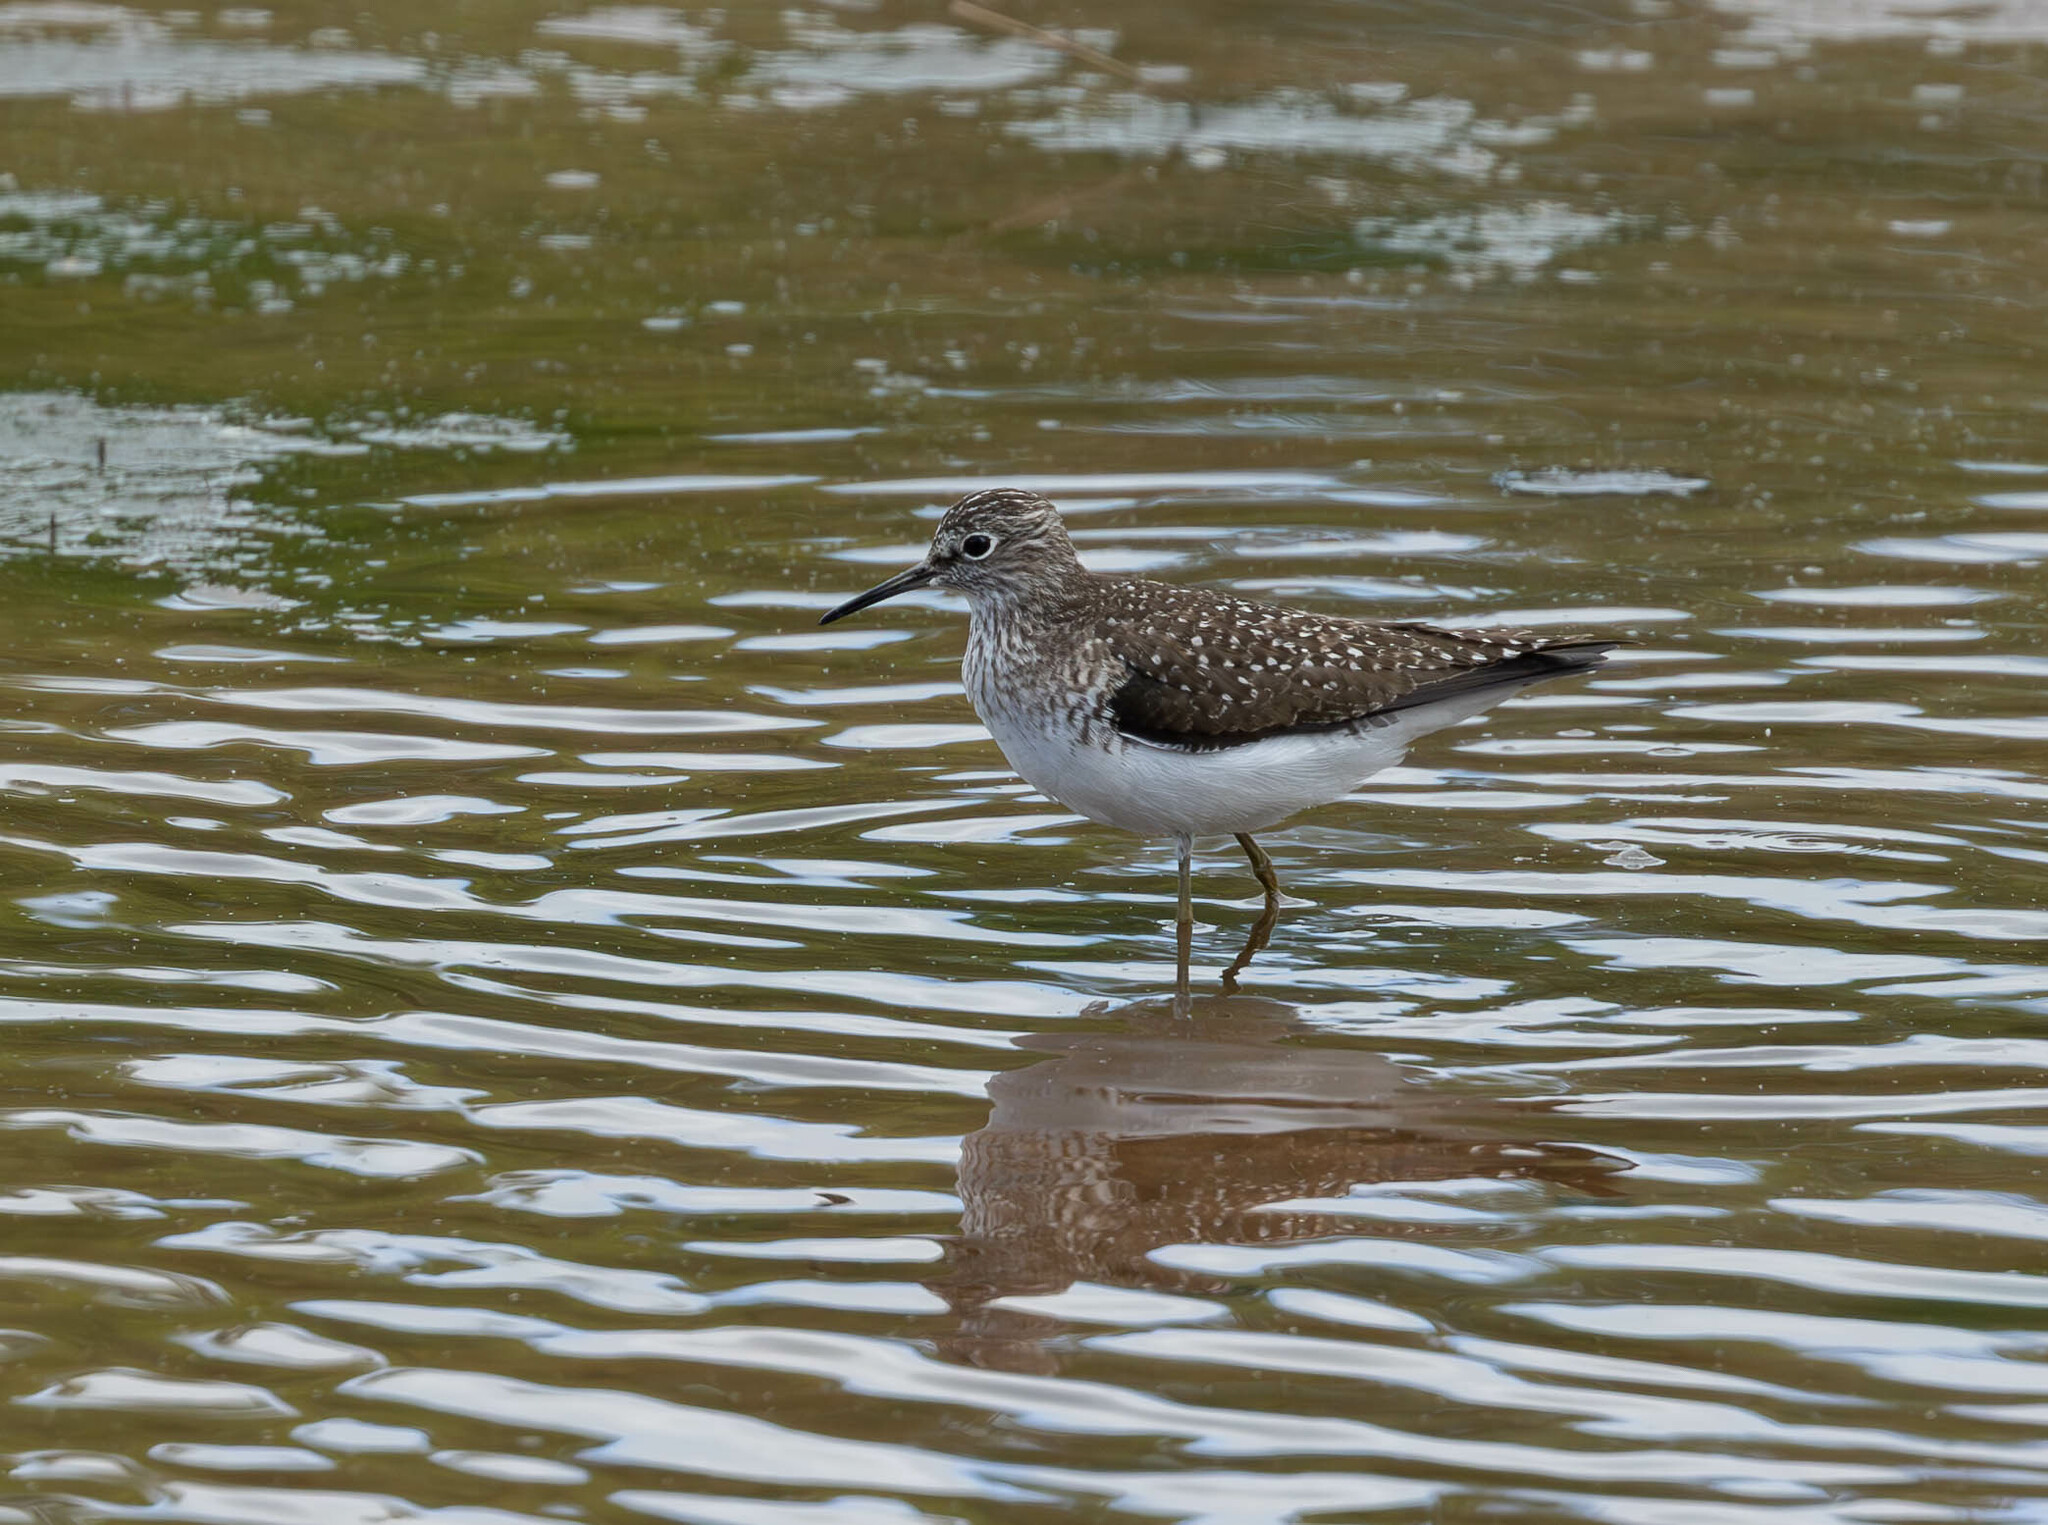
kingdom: Animalia
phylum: Chordata
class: Aves
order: Charadriiformes
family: Scolopacidae
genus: Tringa
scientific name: Tringa solitaria
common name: Solitary sandpiper
